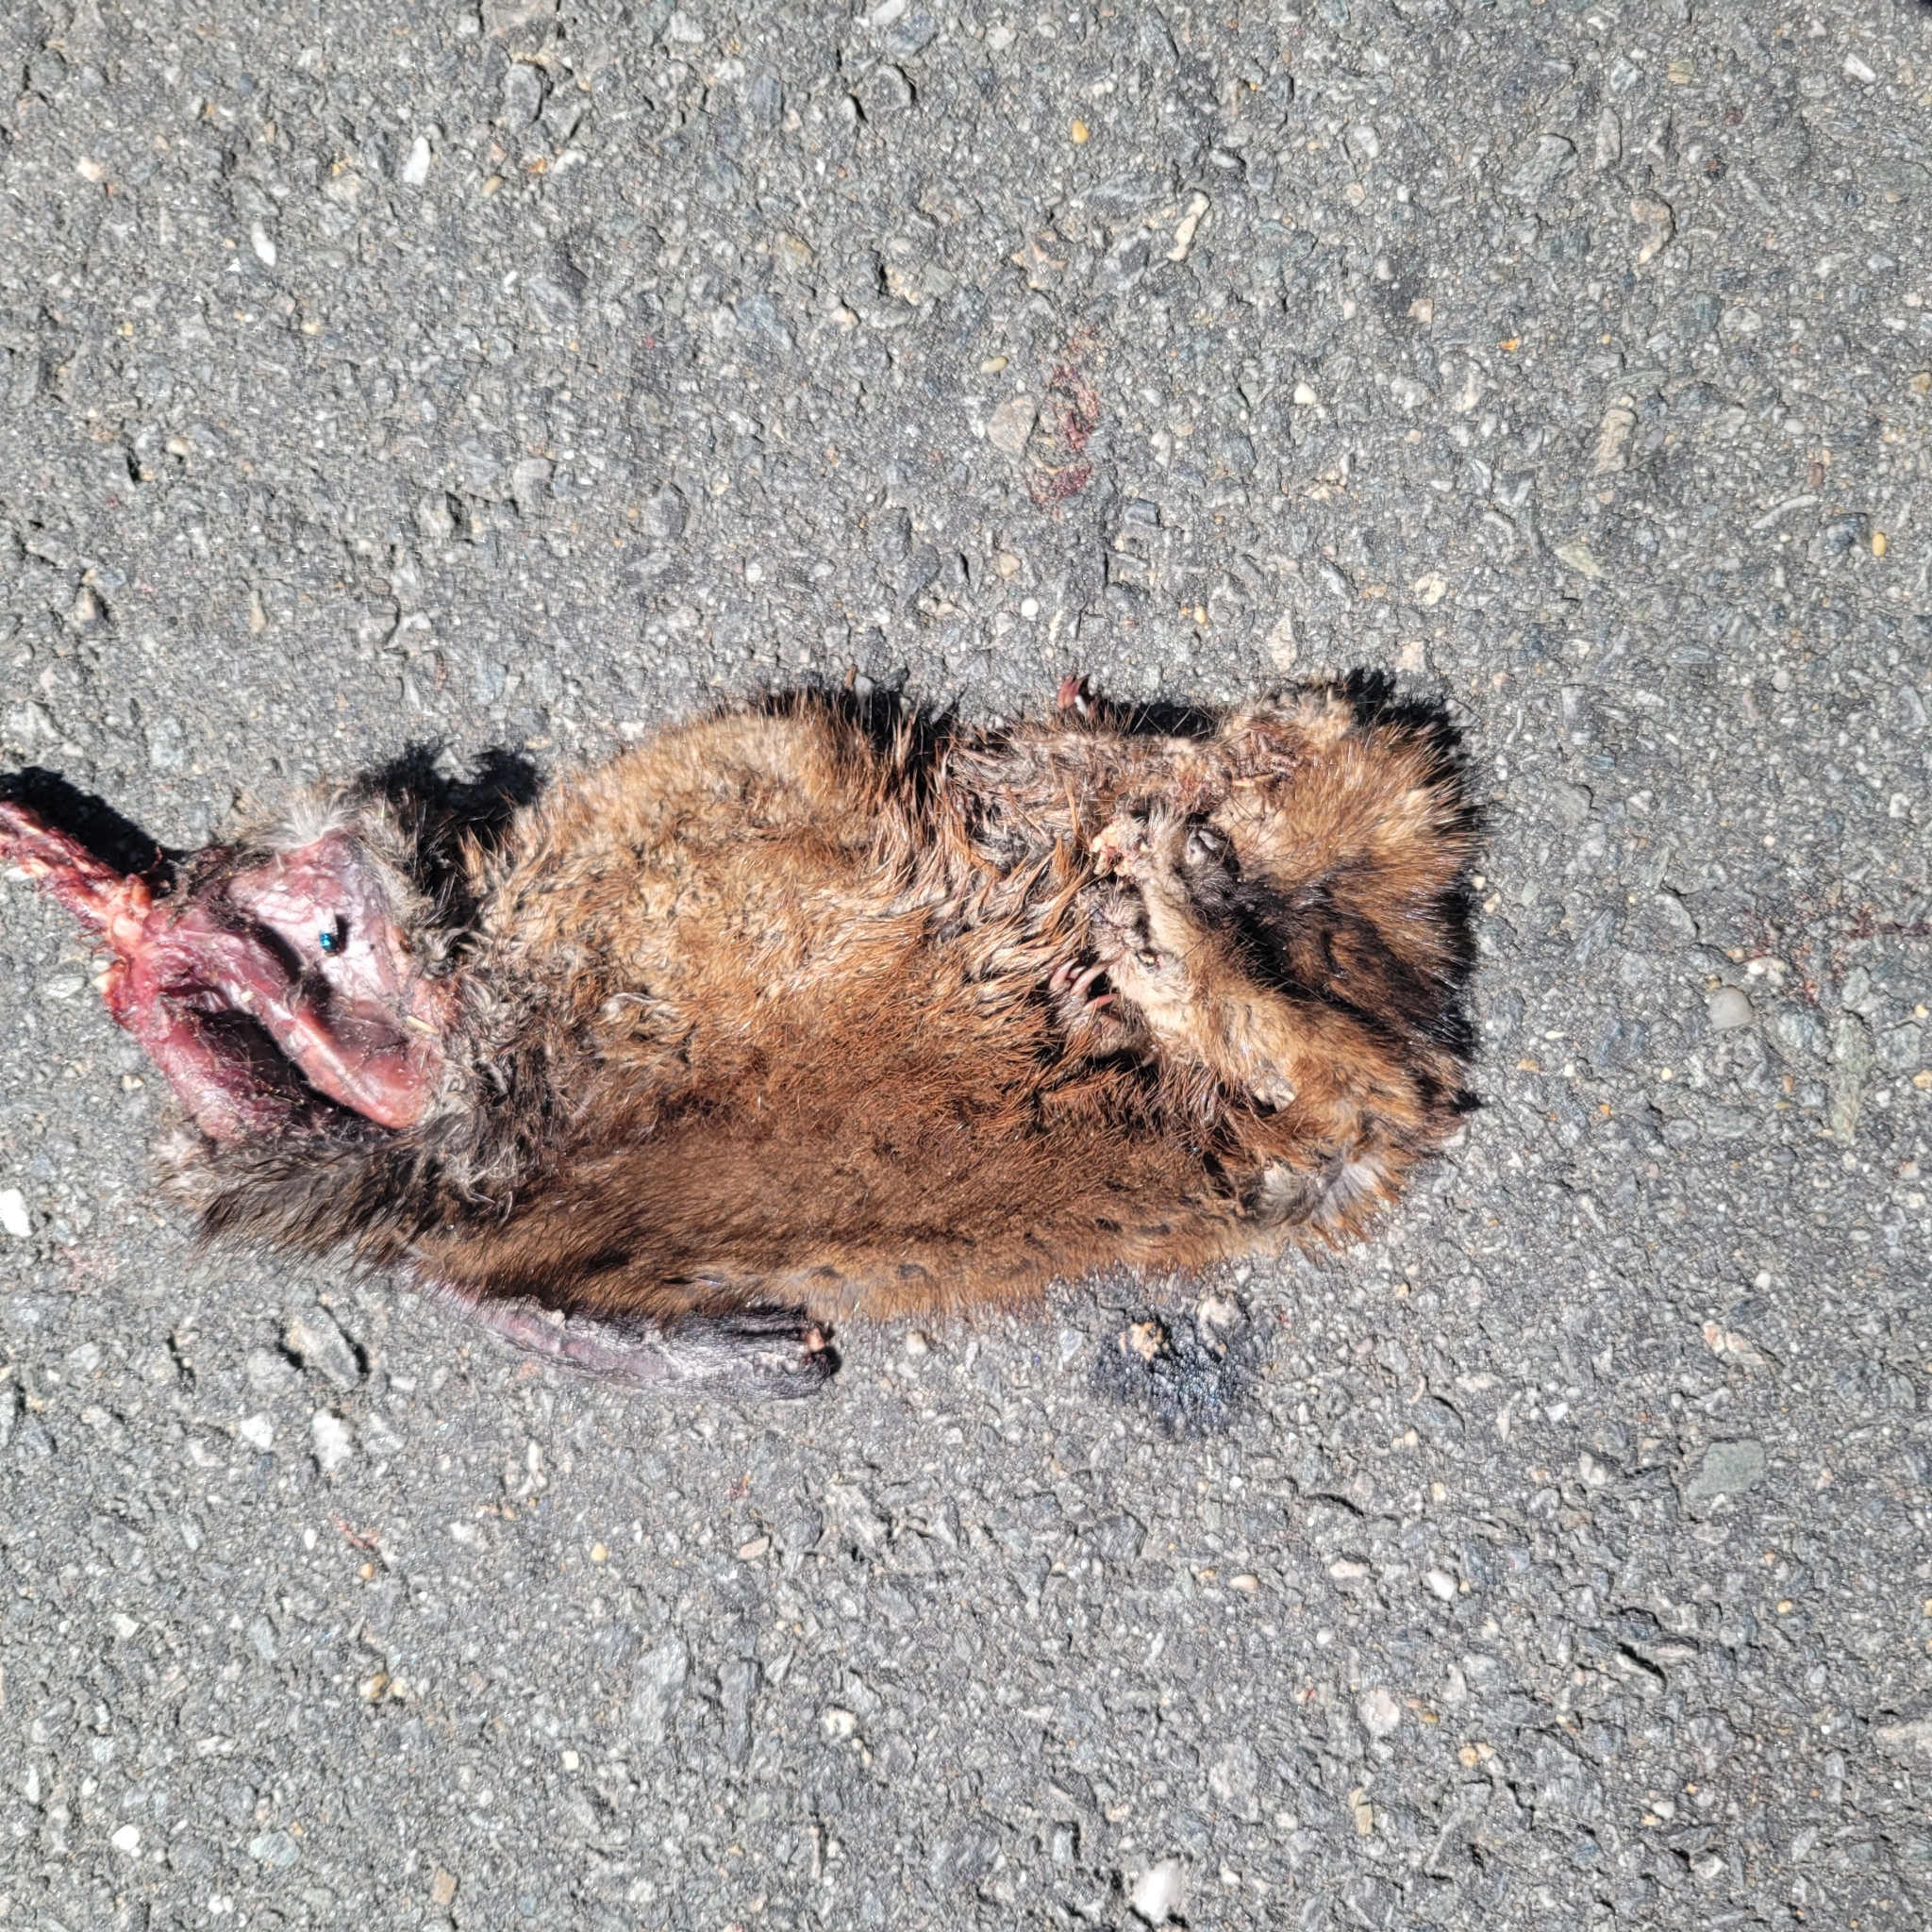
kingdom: Animalia
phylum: Chordata
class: Mammalia
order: Rodentia
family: Cricetidae
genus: Ondatra
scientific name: Ondatra zibethicus
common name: Muskrat
